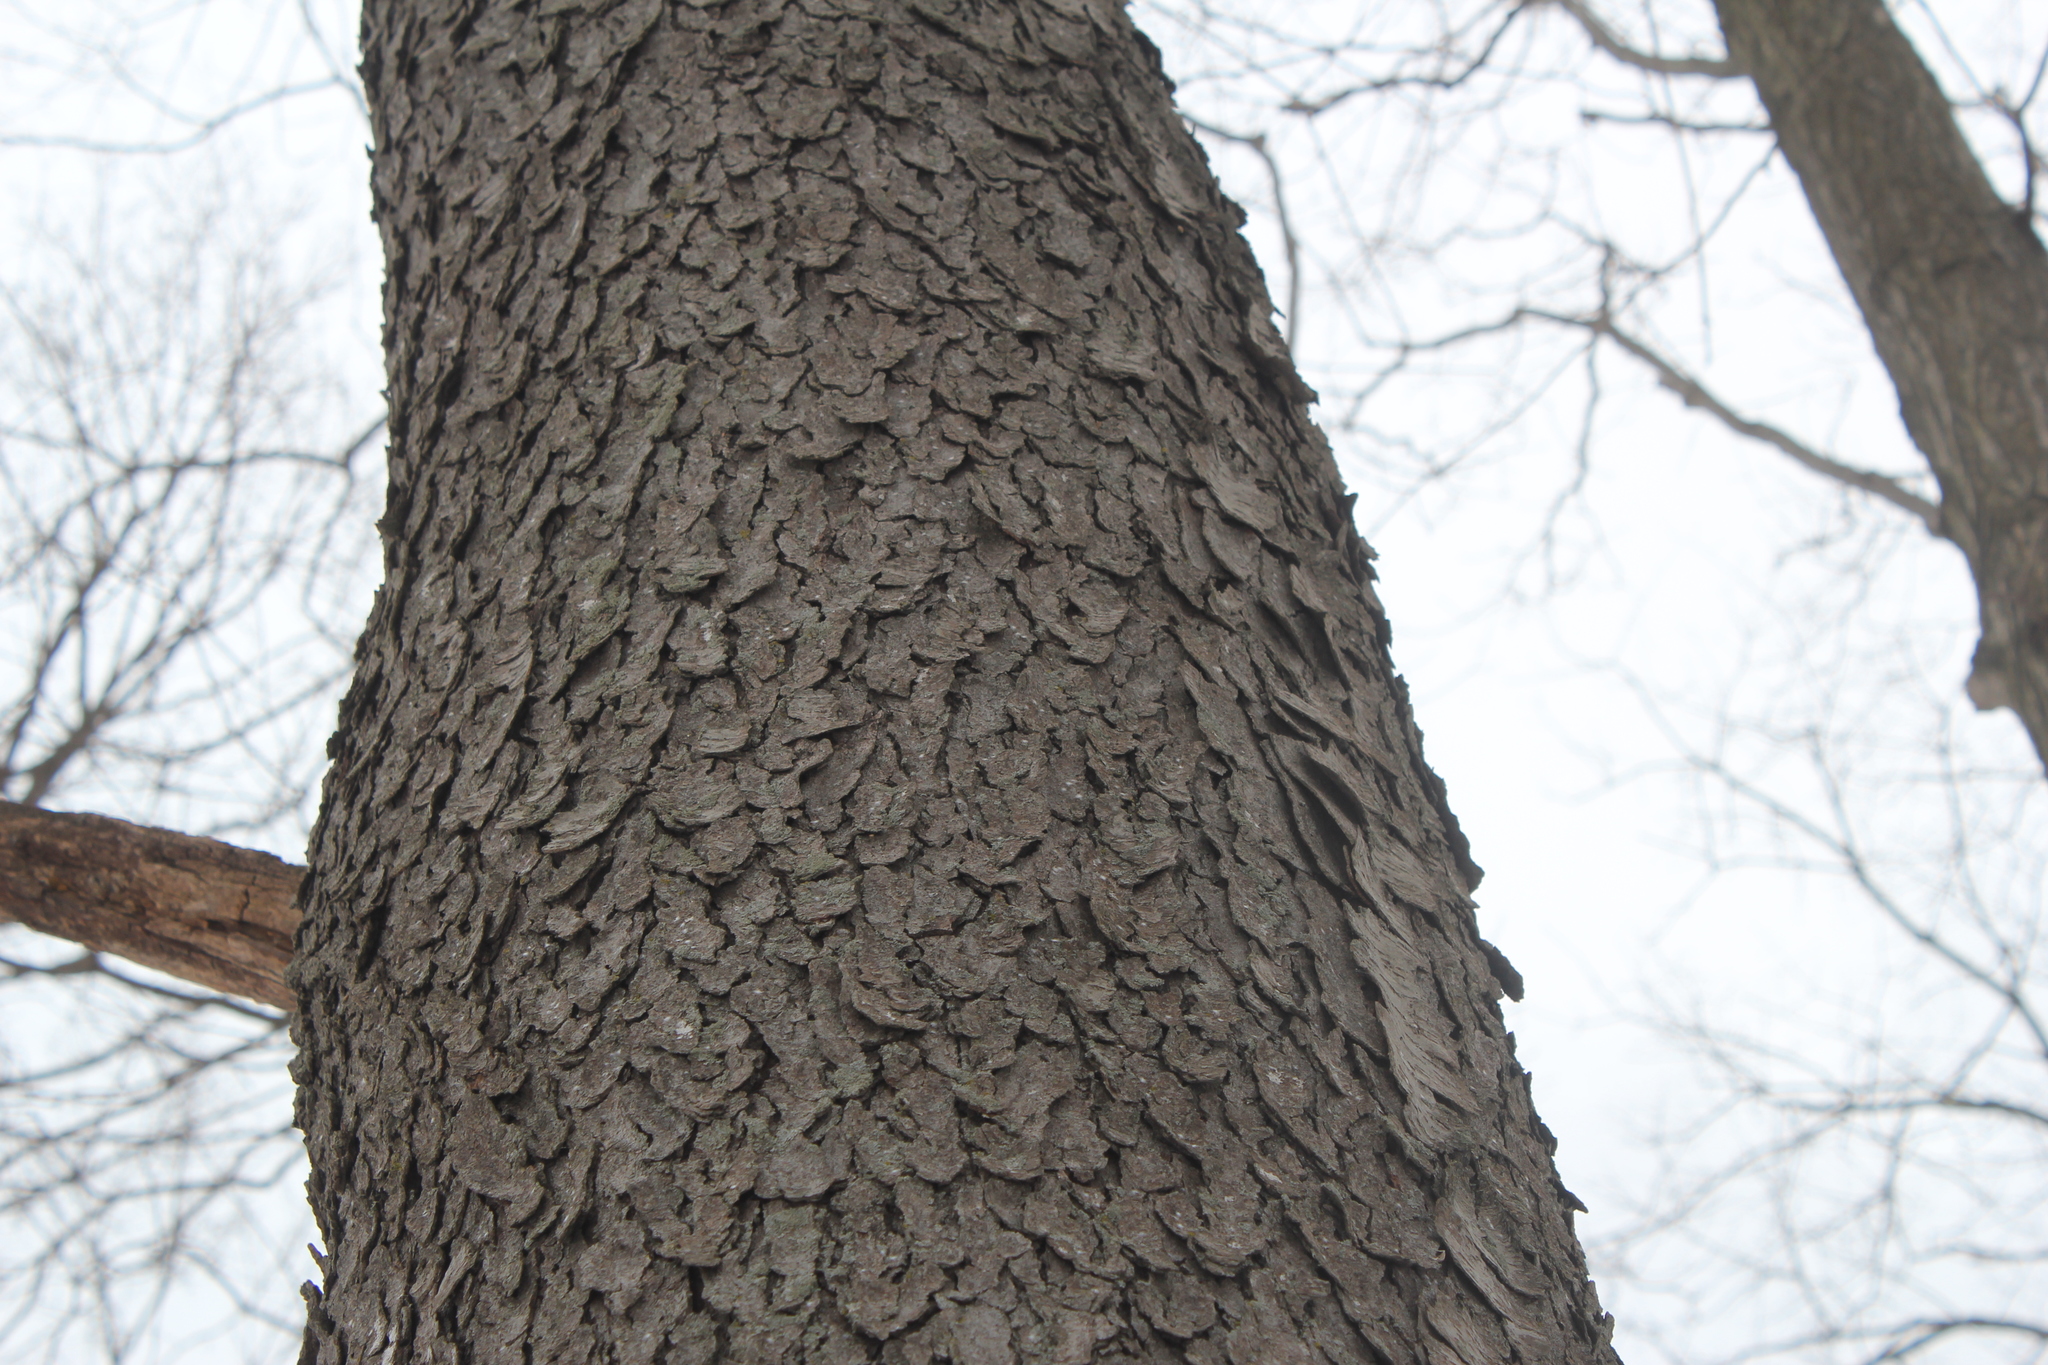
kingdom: Plantae
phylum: Tracheophyta
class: Magnoliopsida
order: Rosales
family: Rosaceae
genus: Prunus
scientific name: Prunus serotina
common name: Black cherry
